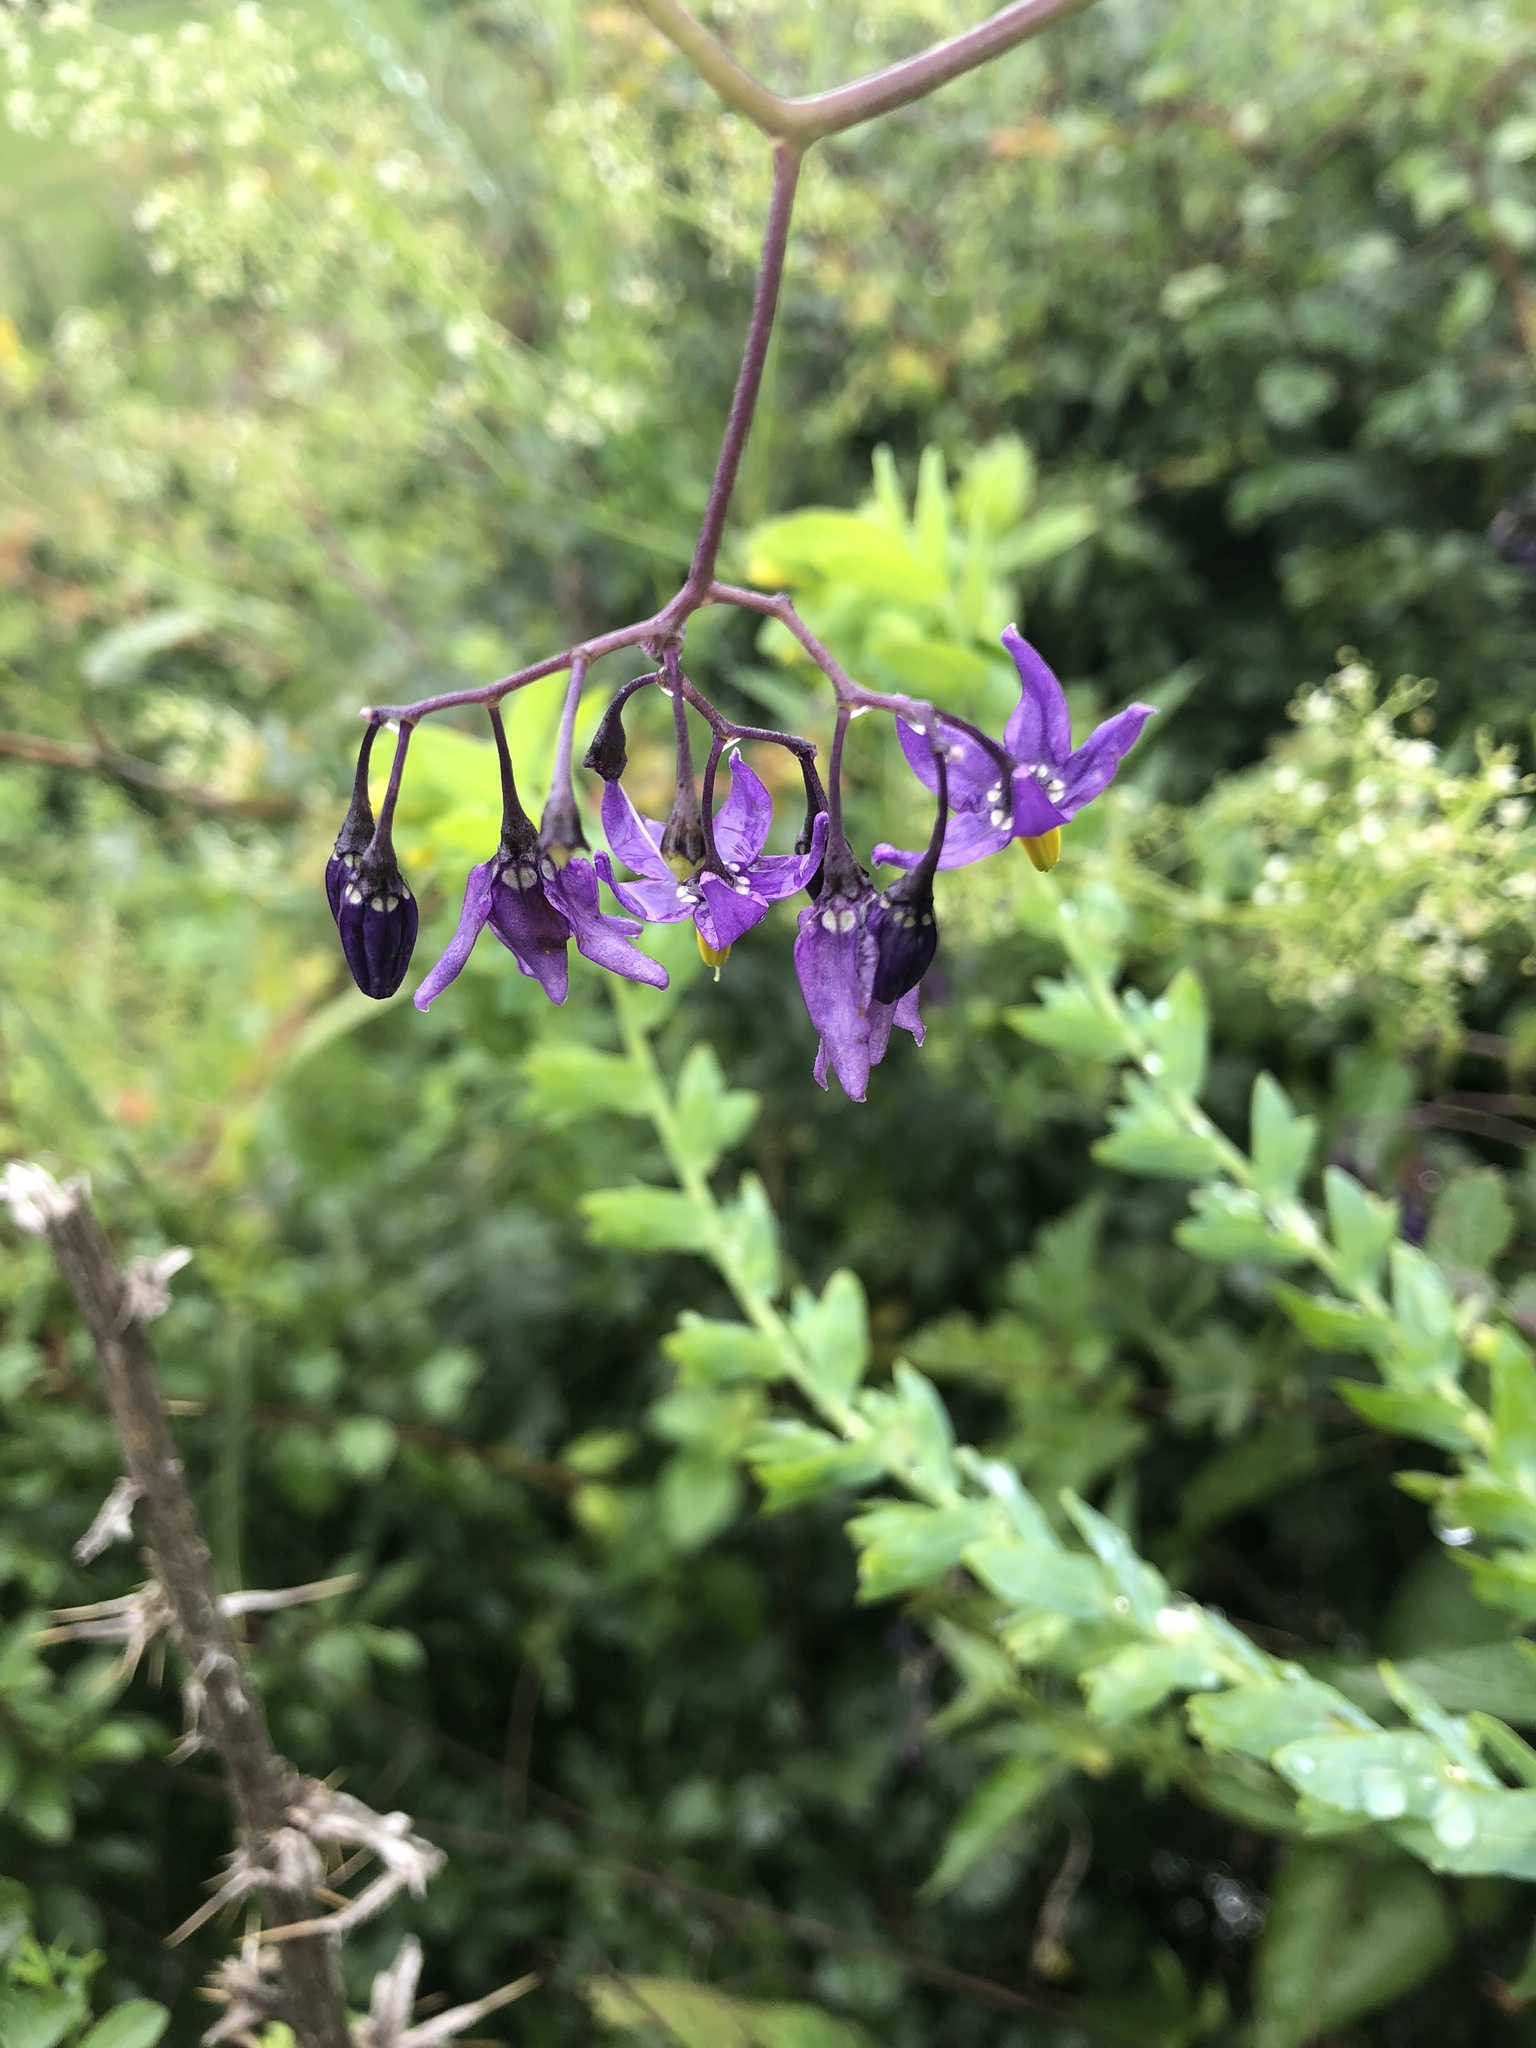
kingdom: Plantae
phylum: Tracheophyta
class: Magnoliopsida
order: Solanales
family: Solanaceae
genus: Solanum
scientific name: Solanum dulcamara
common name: Climbing nightshade
